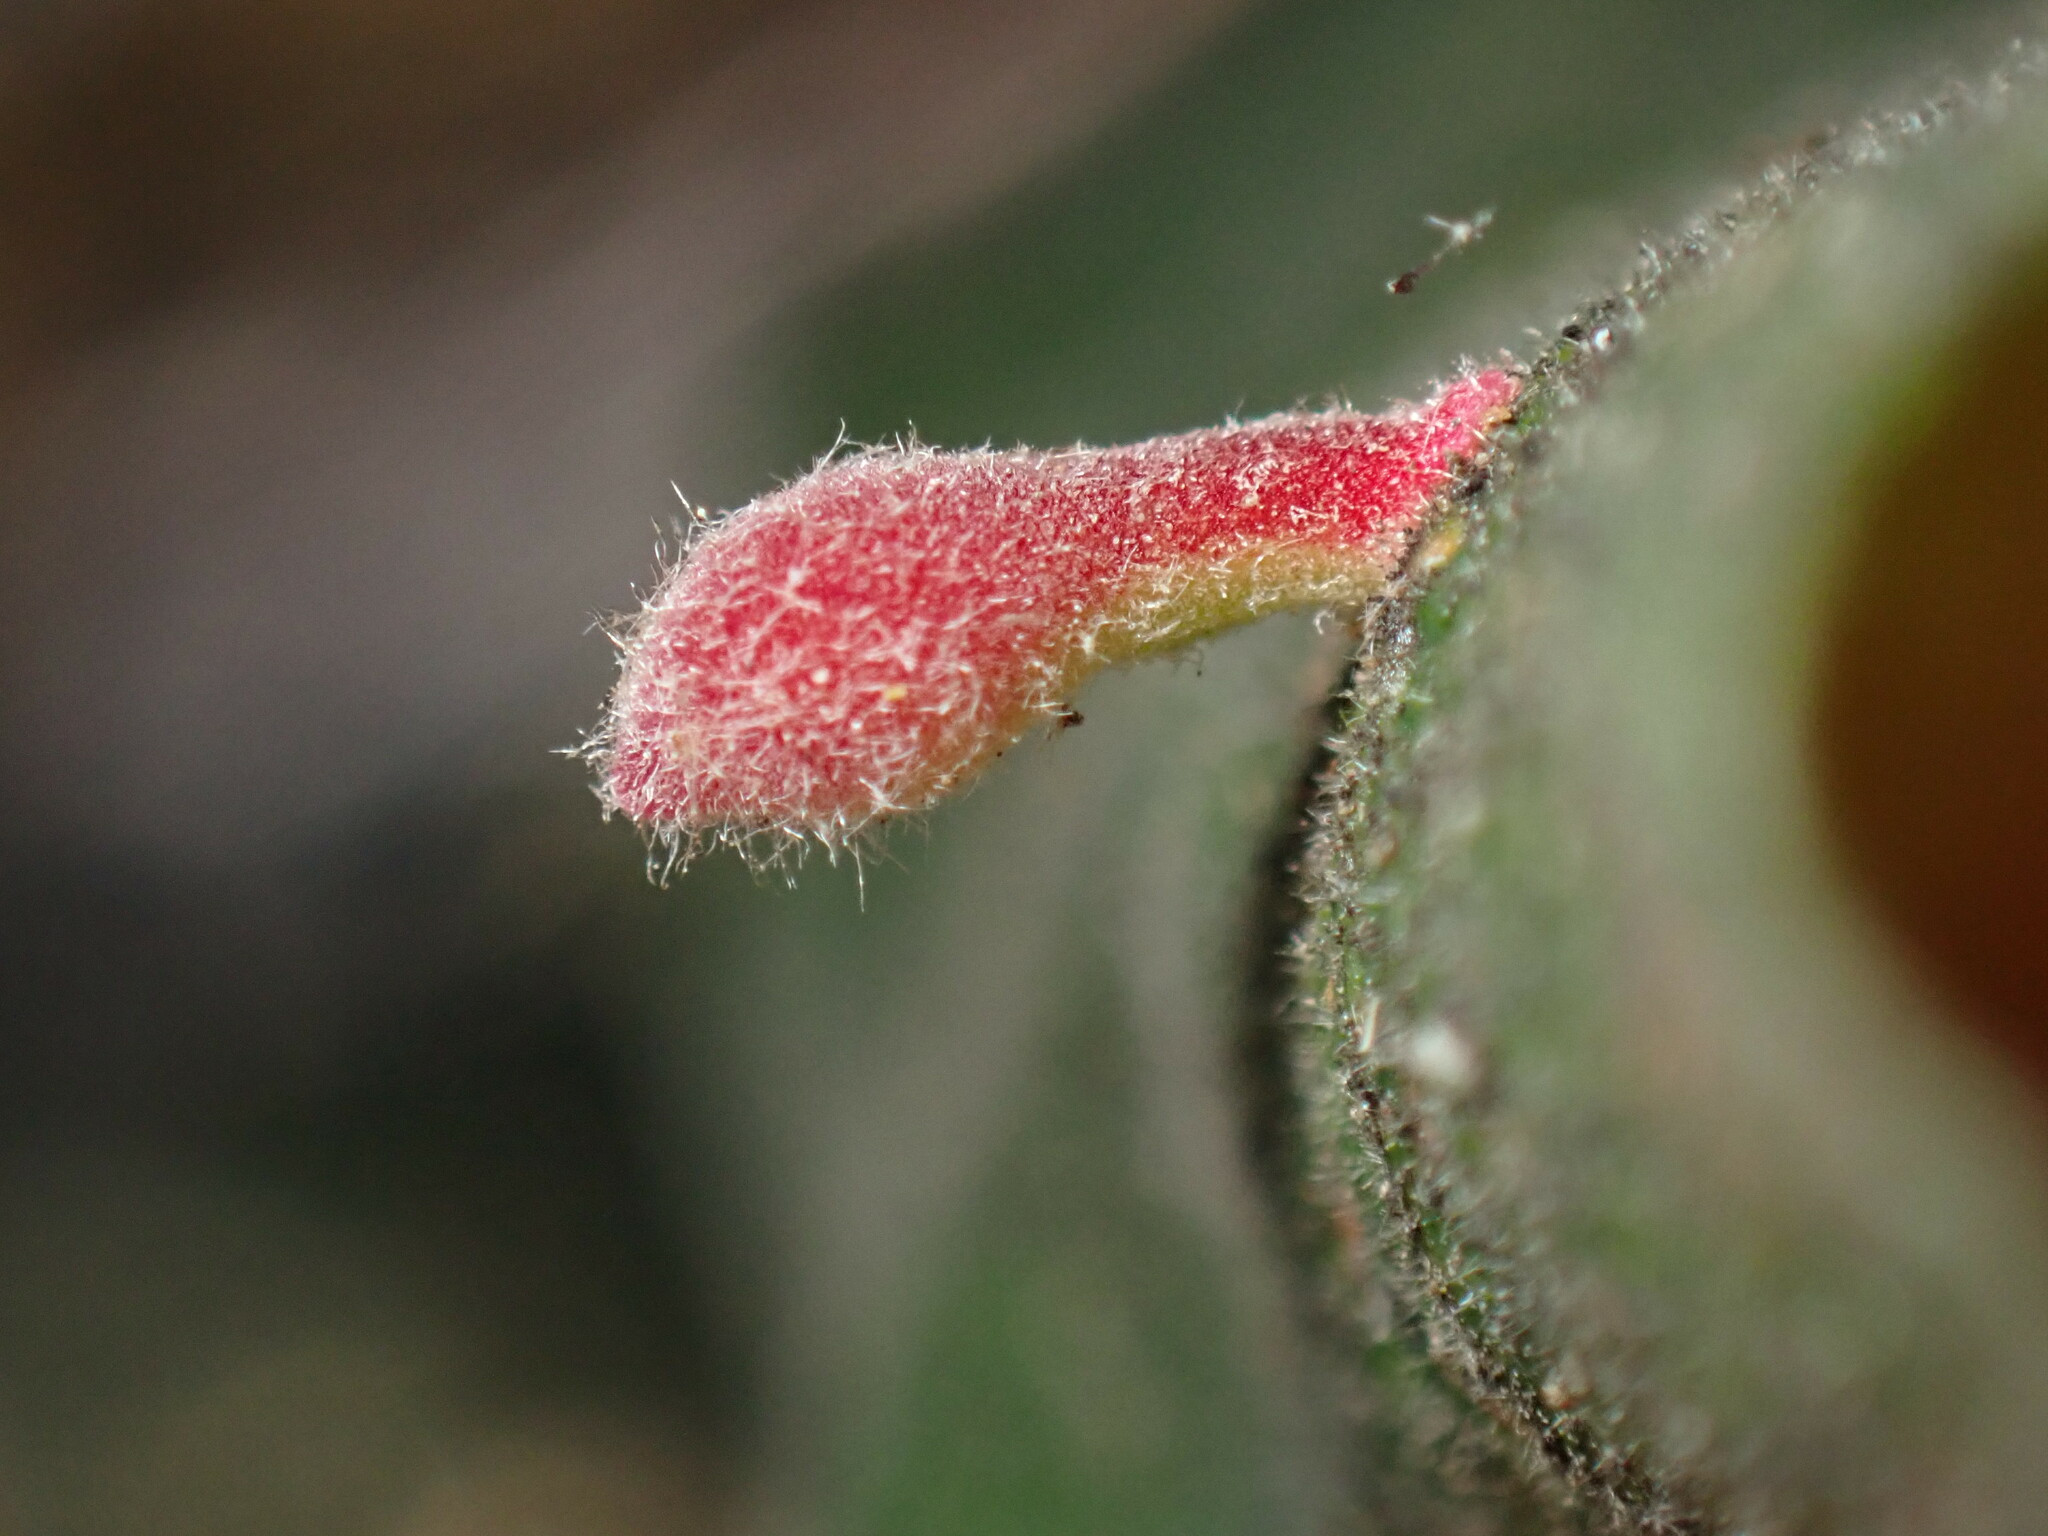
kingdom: Animalia
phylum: Arthropoda
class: Insecta
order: Hymenoptera
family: Cynipidae
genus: Atrusca
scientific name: Atrusca
